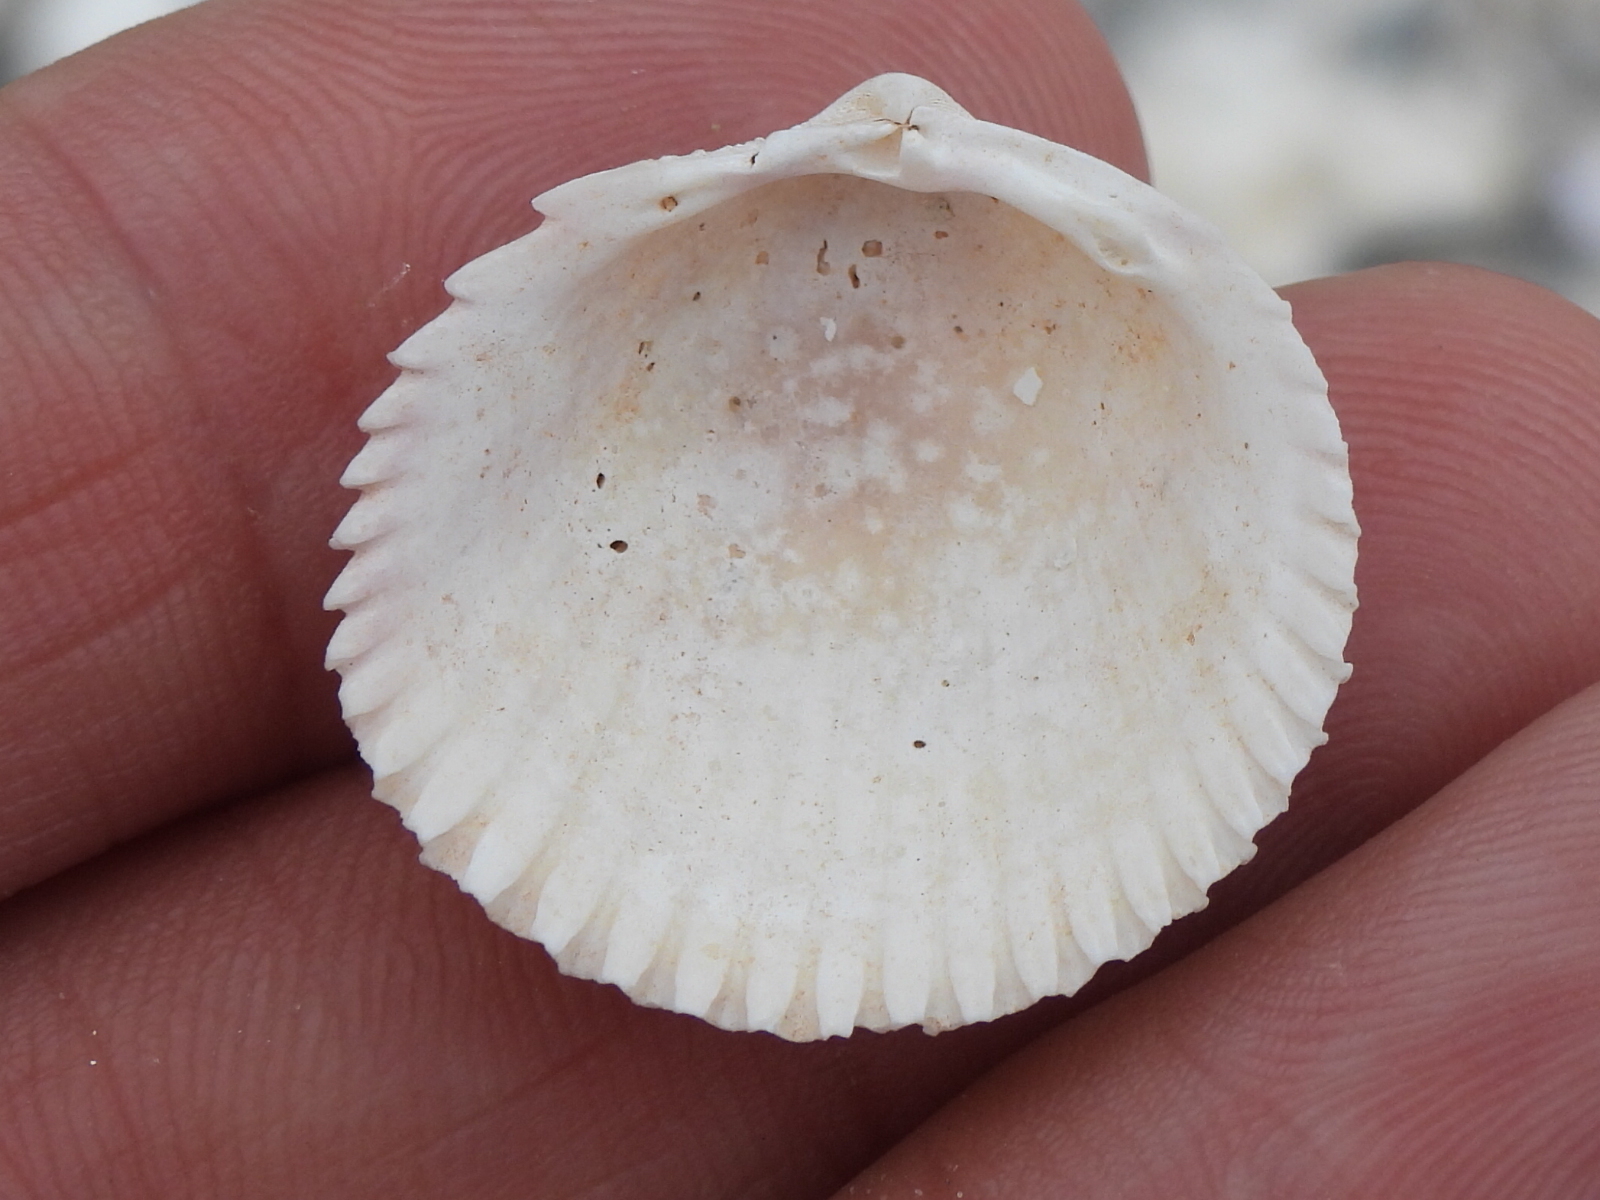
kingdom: Animalia
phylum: Mollusca
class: Bivalvia
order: Cardiida
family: Cardiidae
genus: Dallocardia
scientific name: Dallocardia muricata
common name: Yellow pricklycockle
